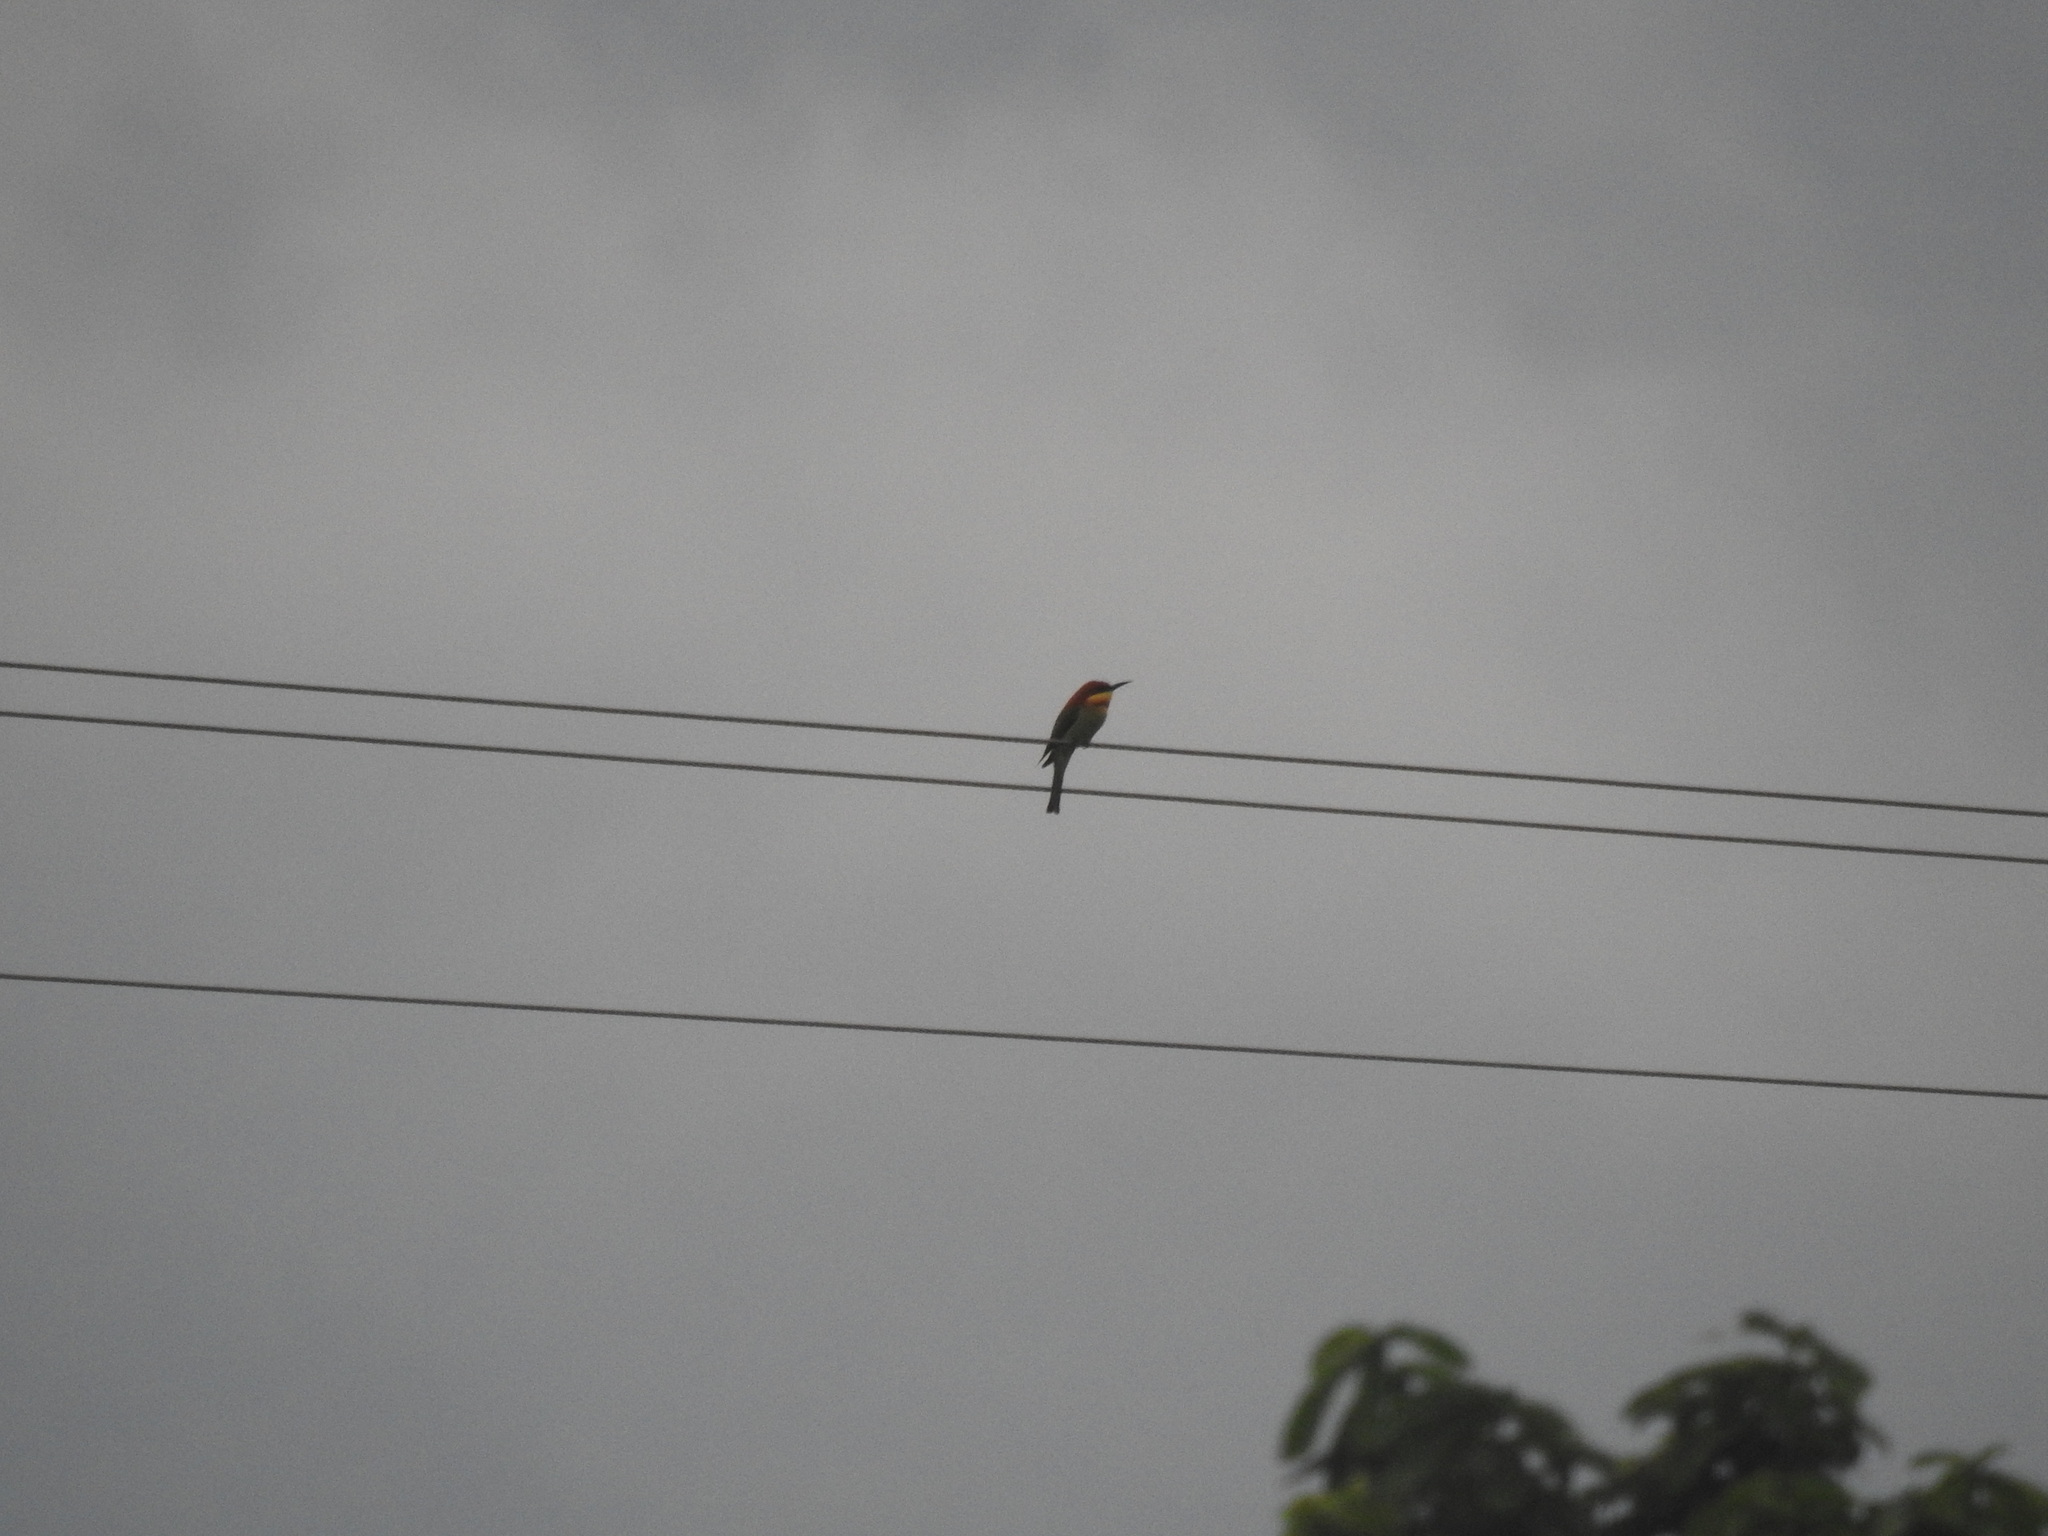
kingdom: Animalia
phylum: Chordata
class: Aves
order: Coraciiformes
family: Meropidae
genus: Merops
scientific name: Merops leschenaulti
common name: Chestnut-headed bee-eater
